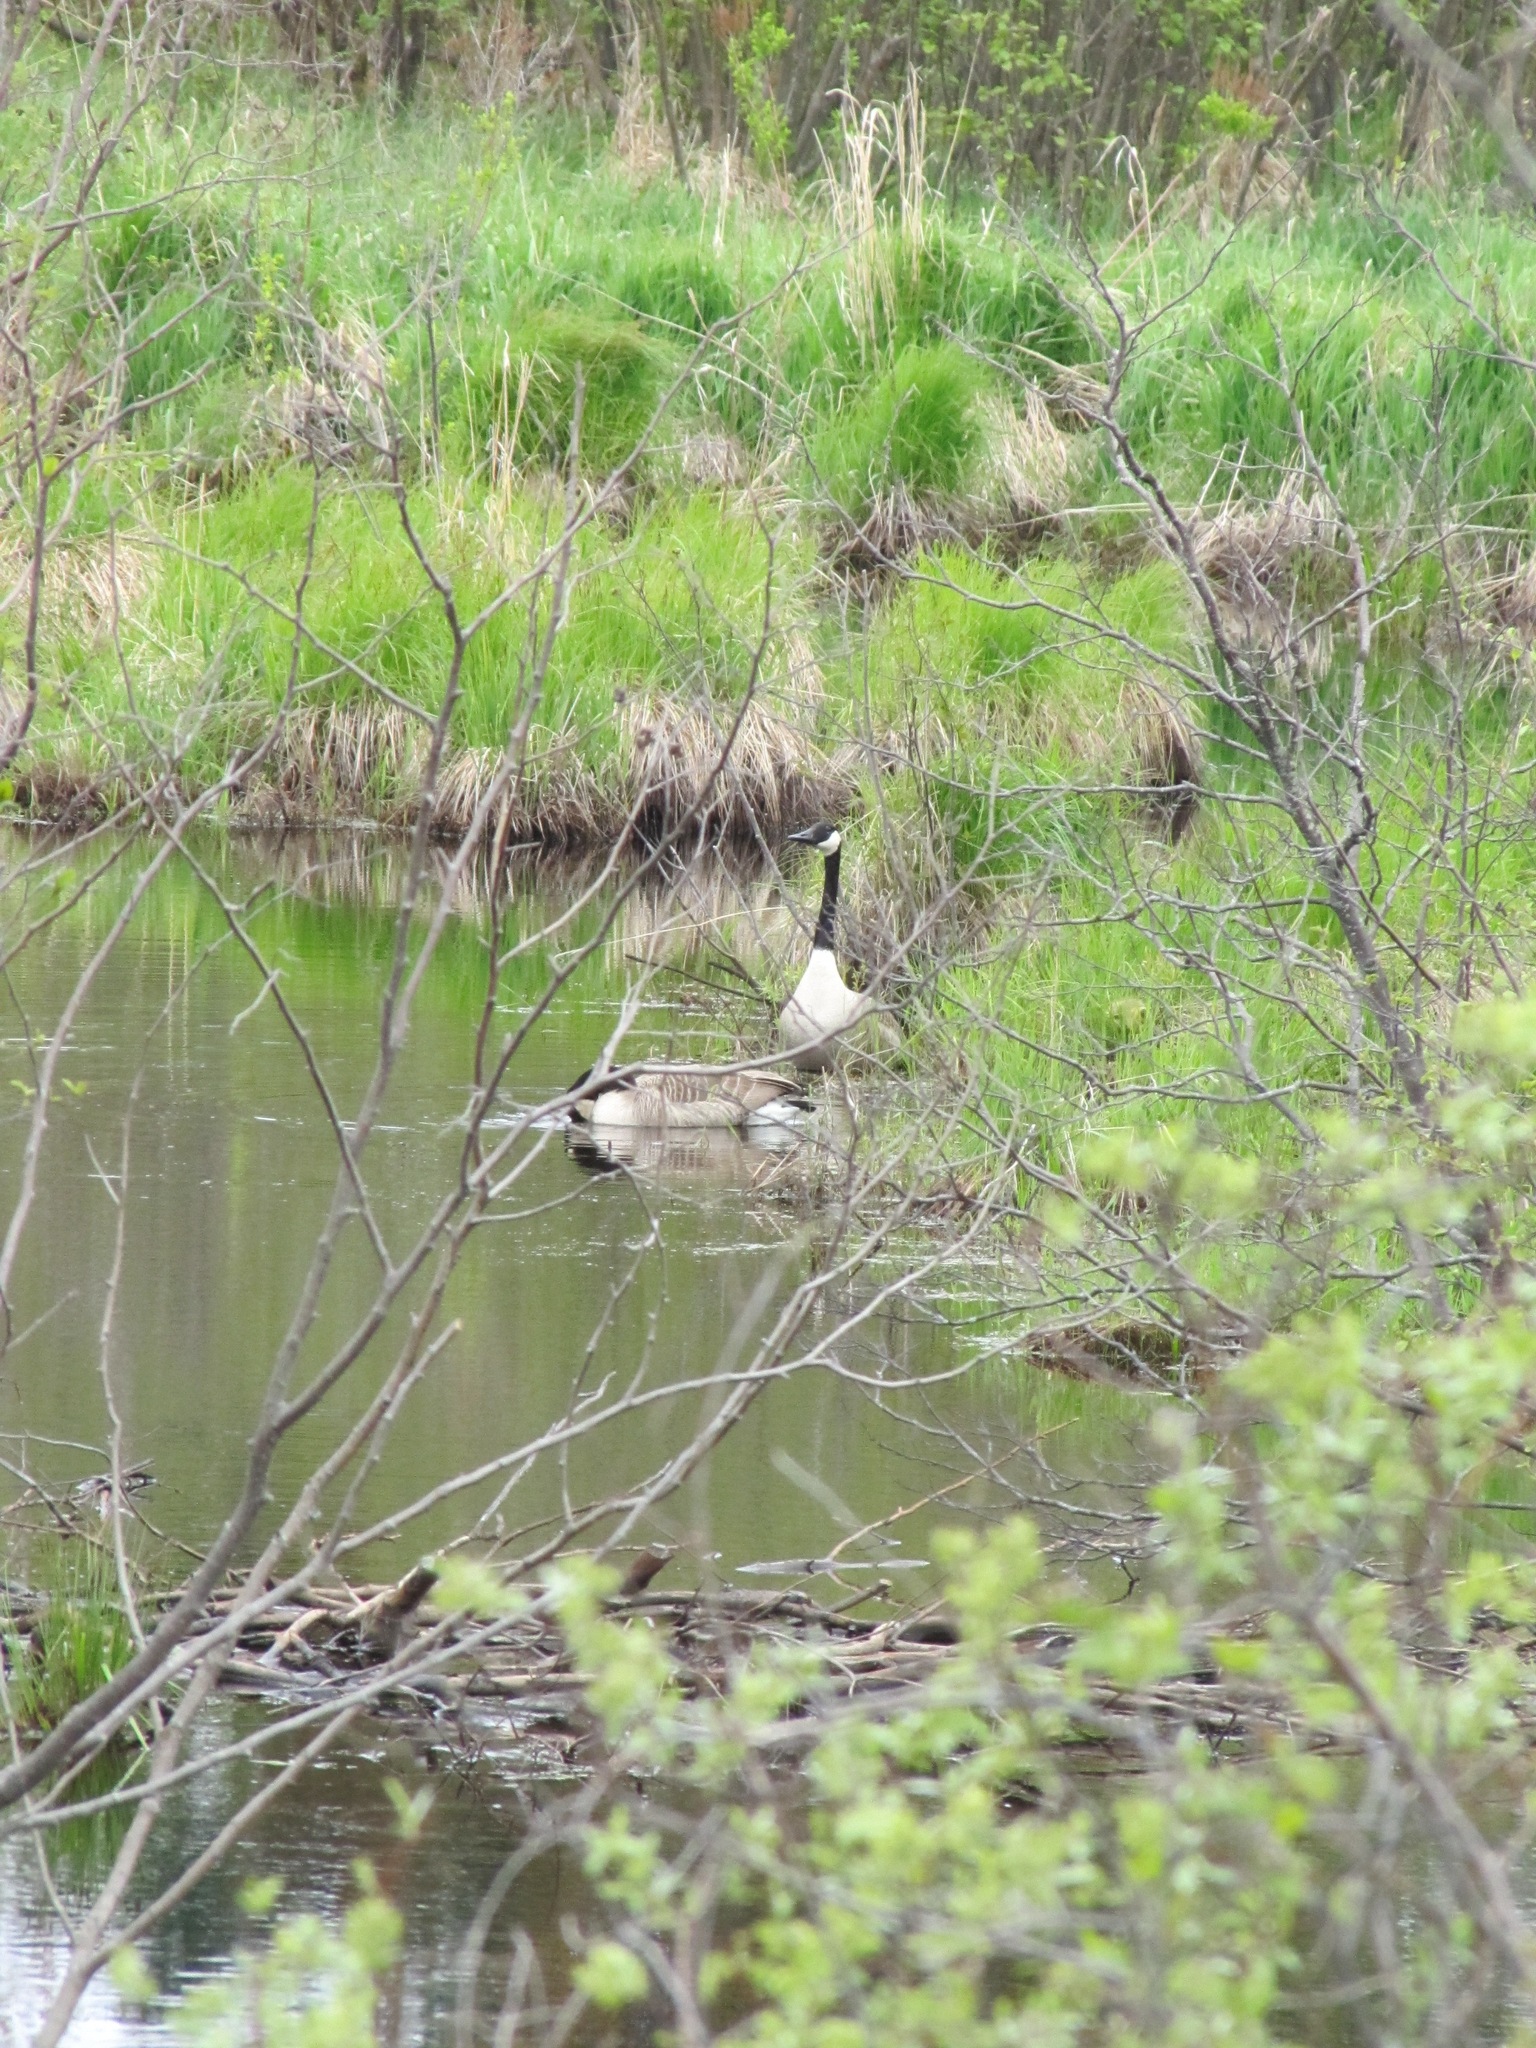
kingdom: Animalia
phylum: Chordata
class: Aves
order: Anseriformes
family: Anatidae
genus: Branta
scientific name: Branta canadensis
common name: Canada goose
